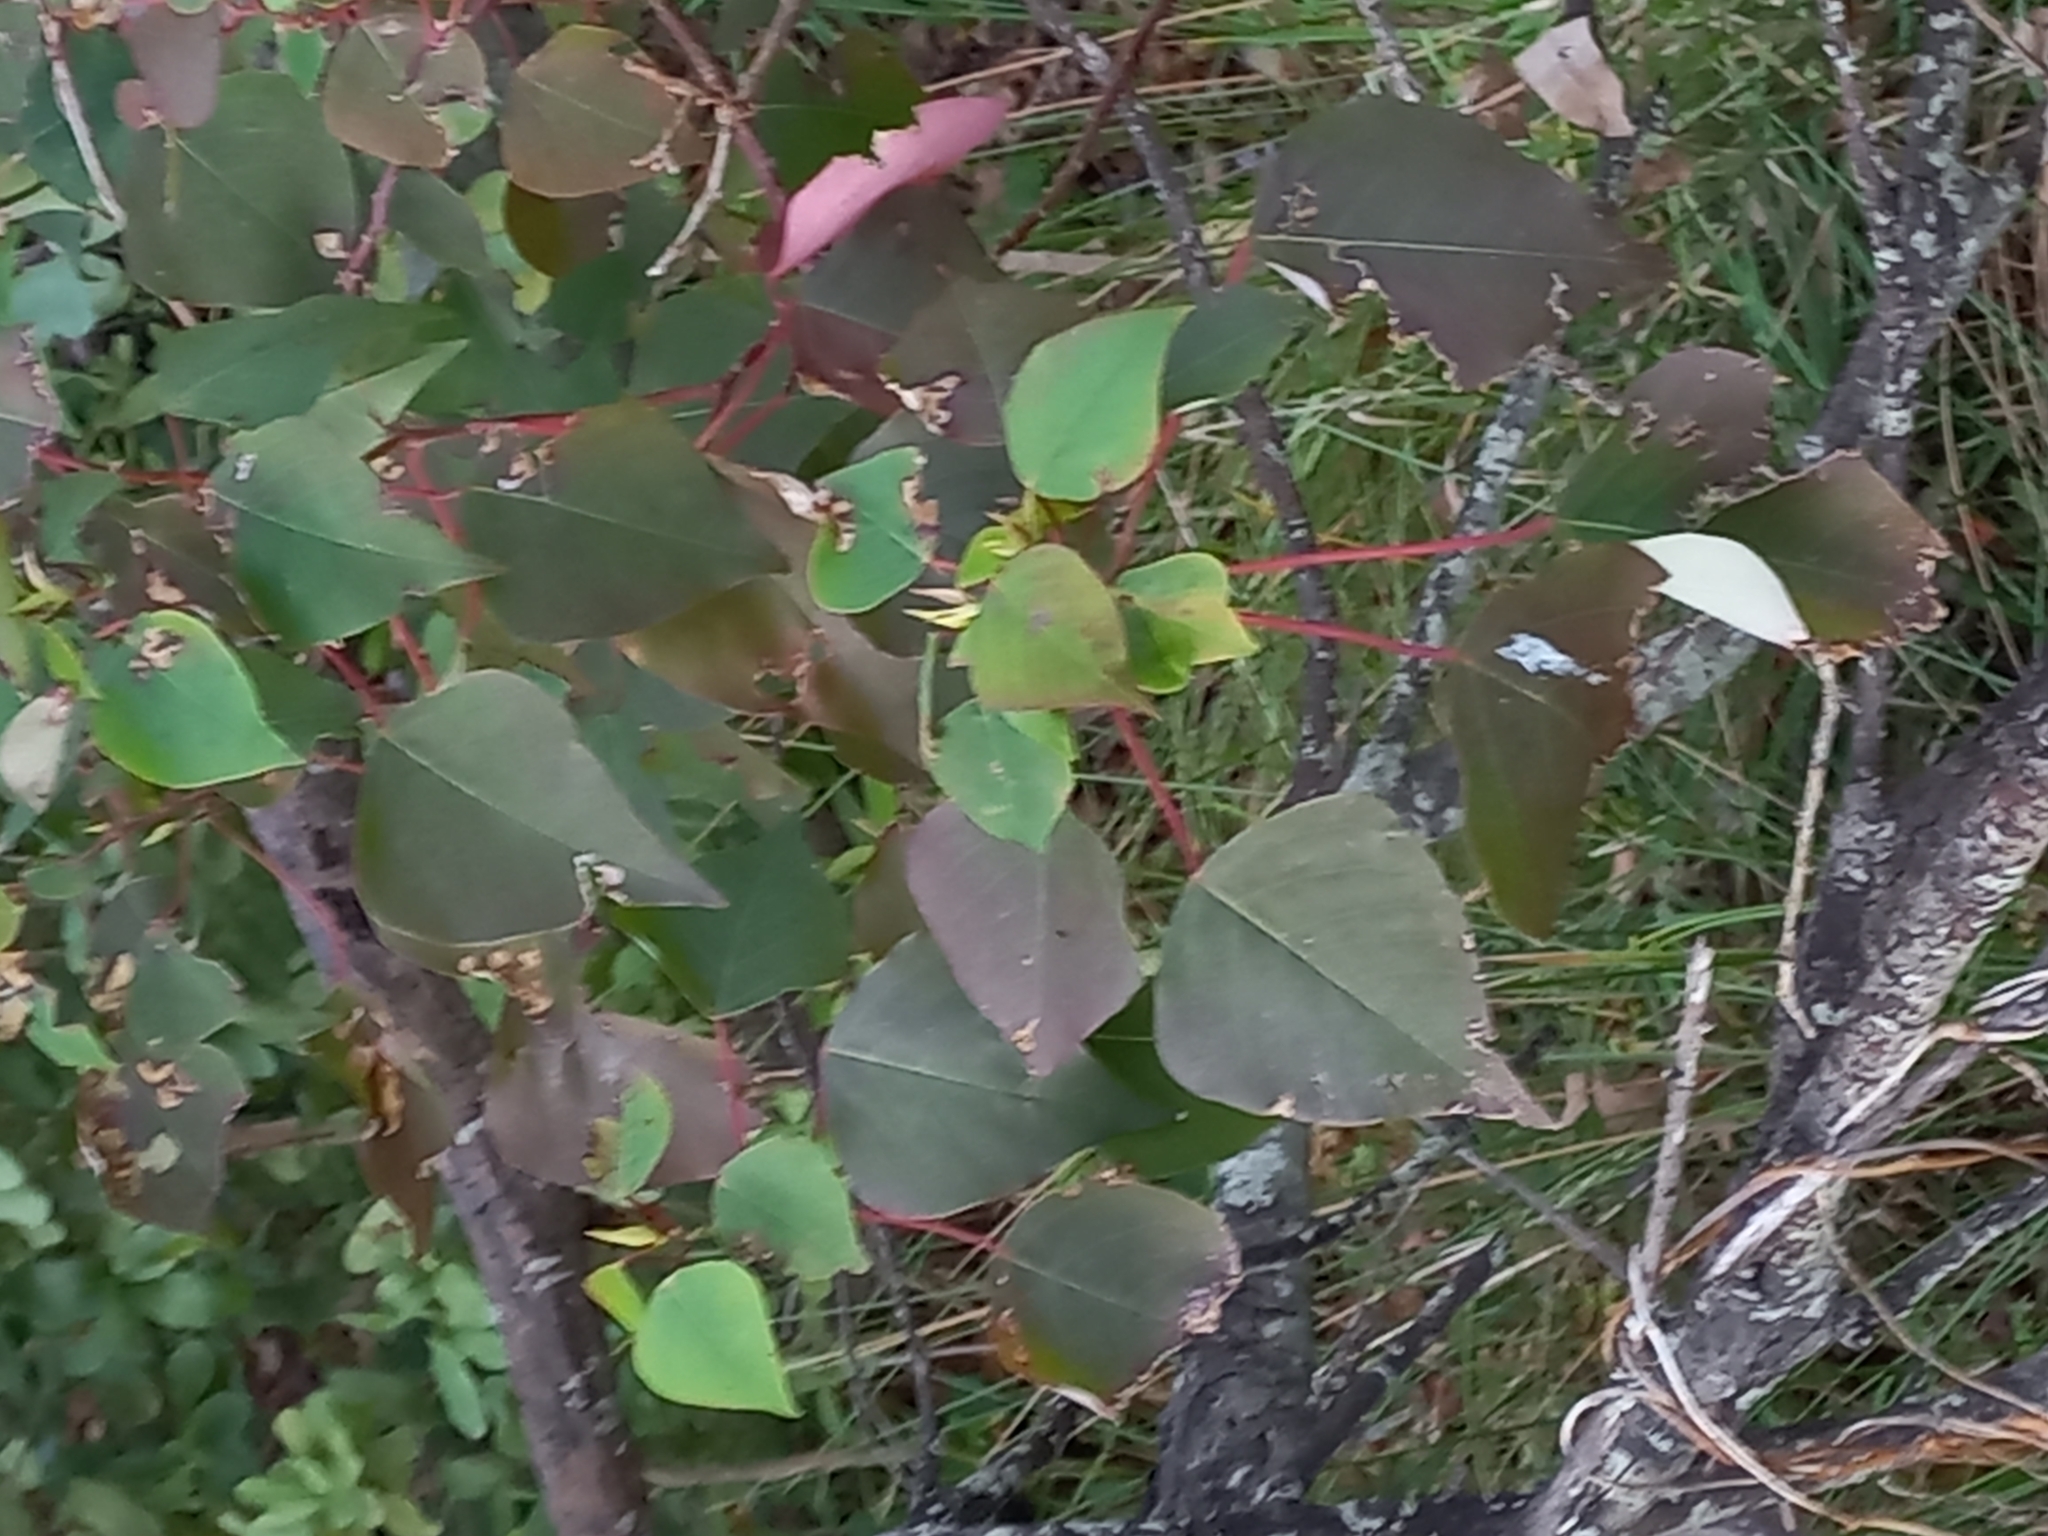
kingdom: Plantae
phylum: Tracheophyta
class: Magnoliopsida
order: Malpighiales
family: Euphorbiaceae
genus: Homalanthus
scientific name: Homalanthus populifolius
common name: Queensland poplar
